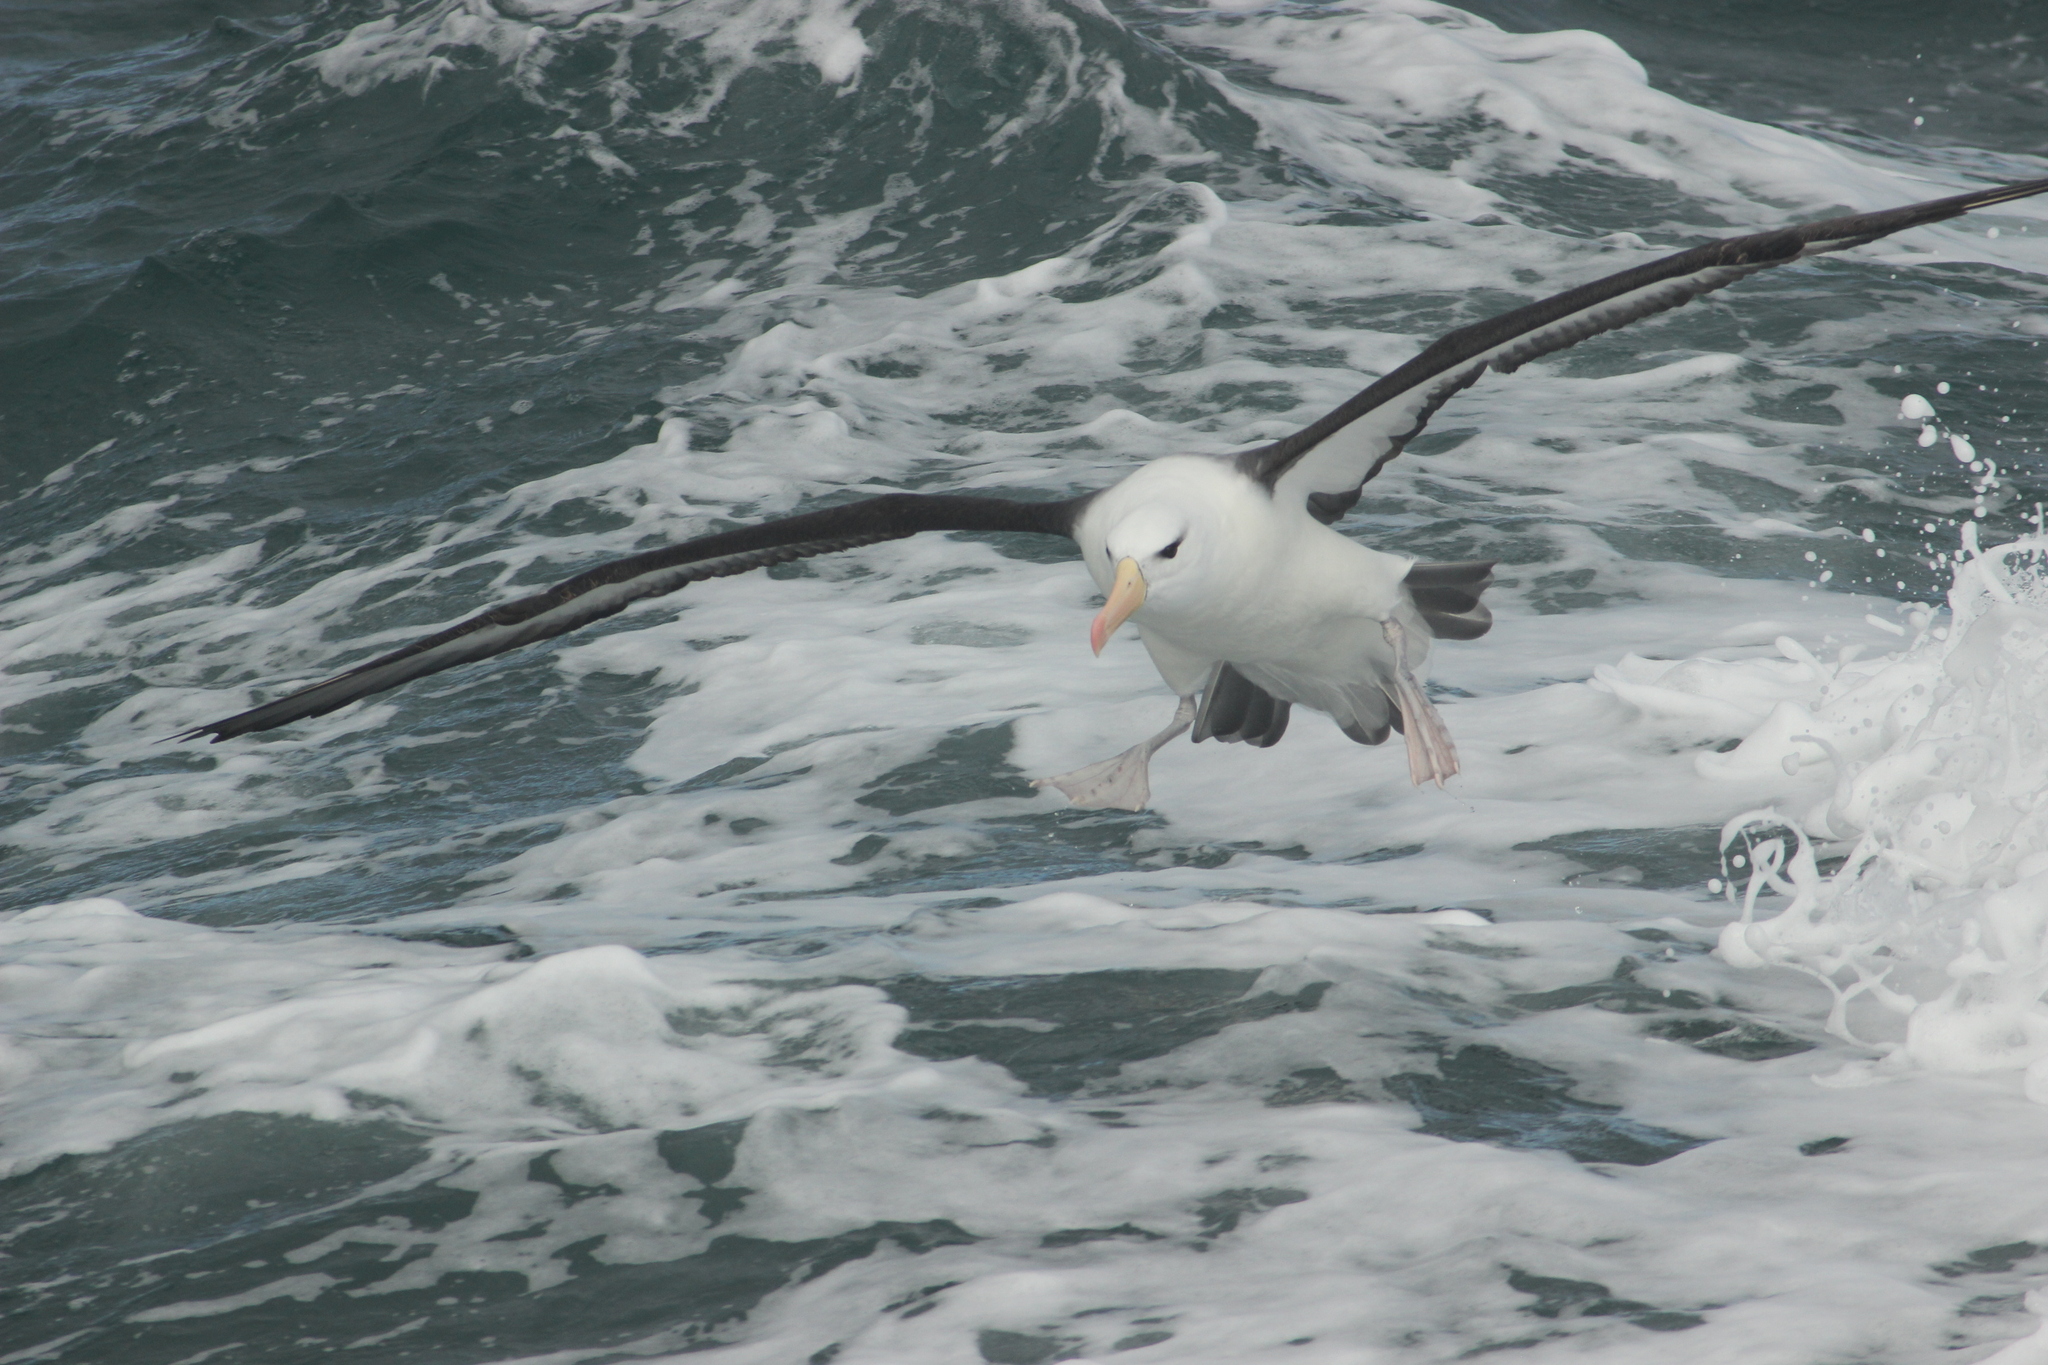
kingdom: Animalia
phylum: Chordata
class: Aves
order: Procellariiformes
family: Diomedeidae
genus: Thalassarche
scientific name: Thalassarche melanophris
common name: Black-browed albatross
